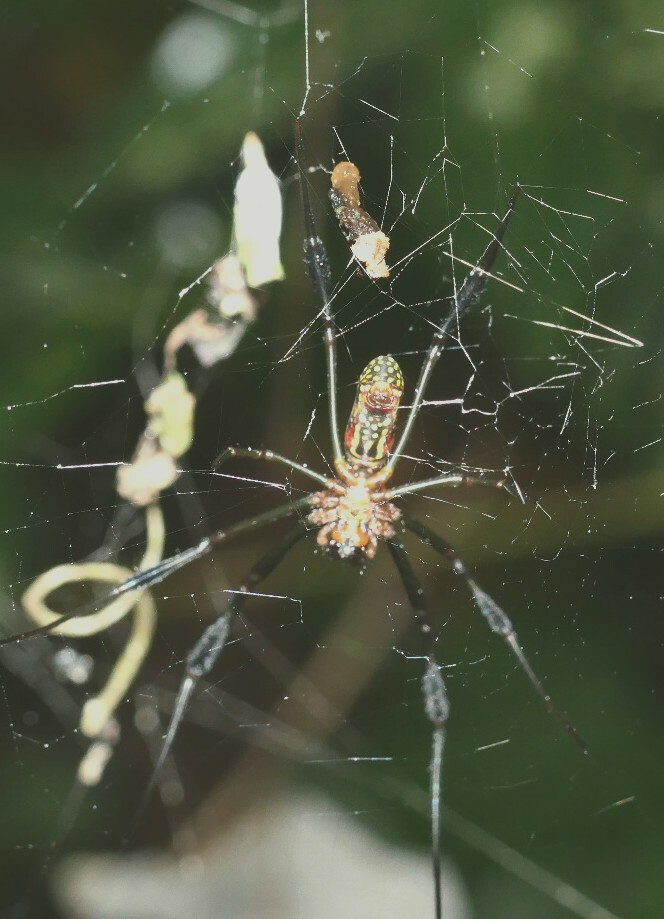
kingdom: Animalia
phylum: Arthropoda
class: Arachnida
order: Araneae
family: Araneidae
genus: Trichonephila
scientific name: Trichonephila clavipes
